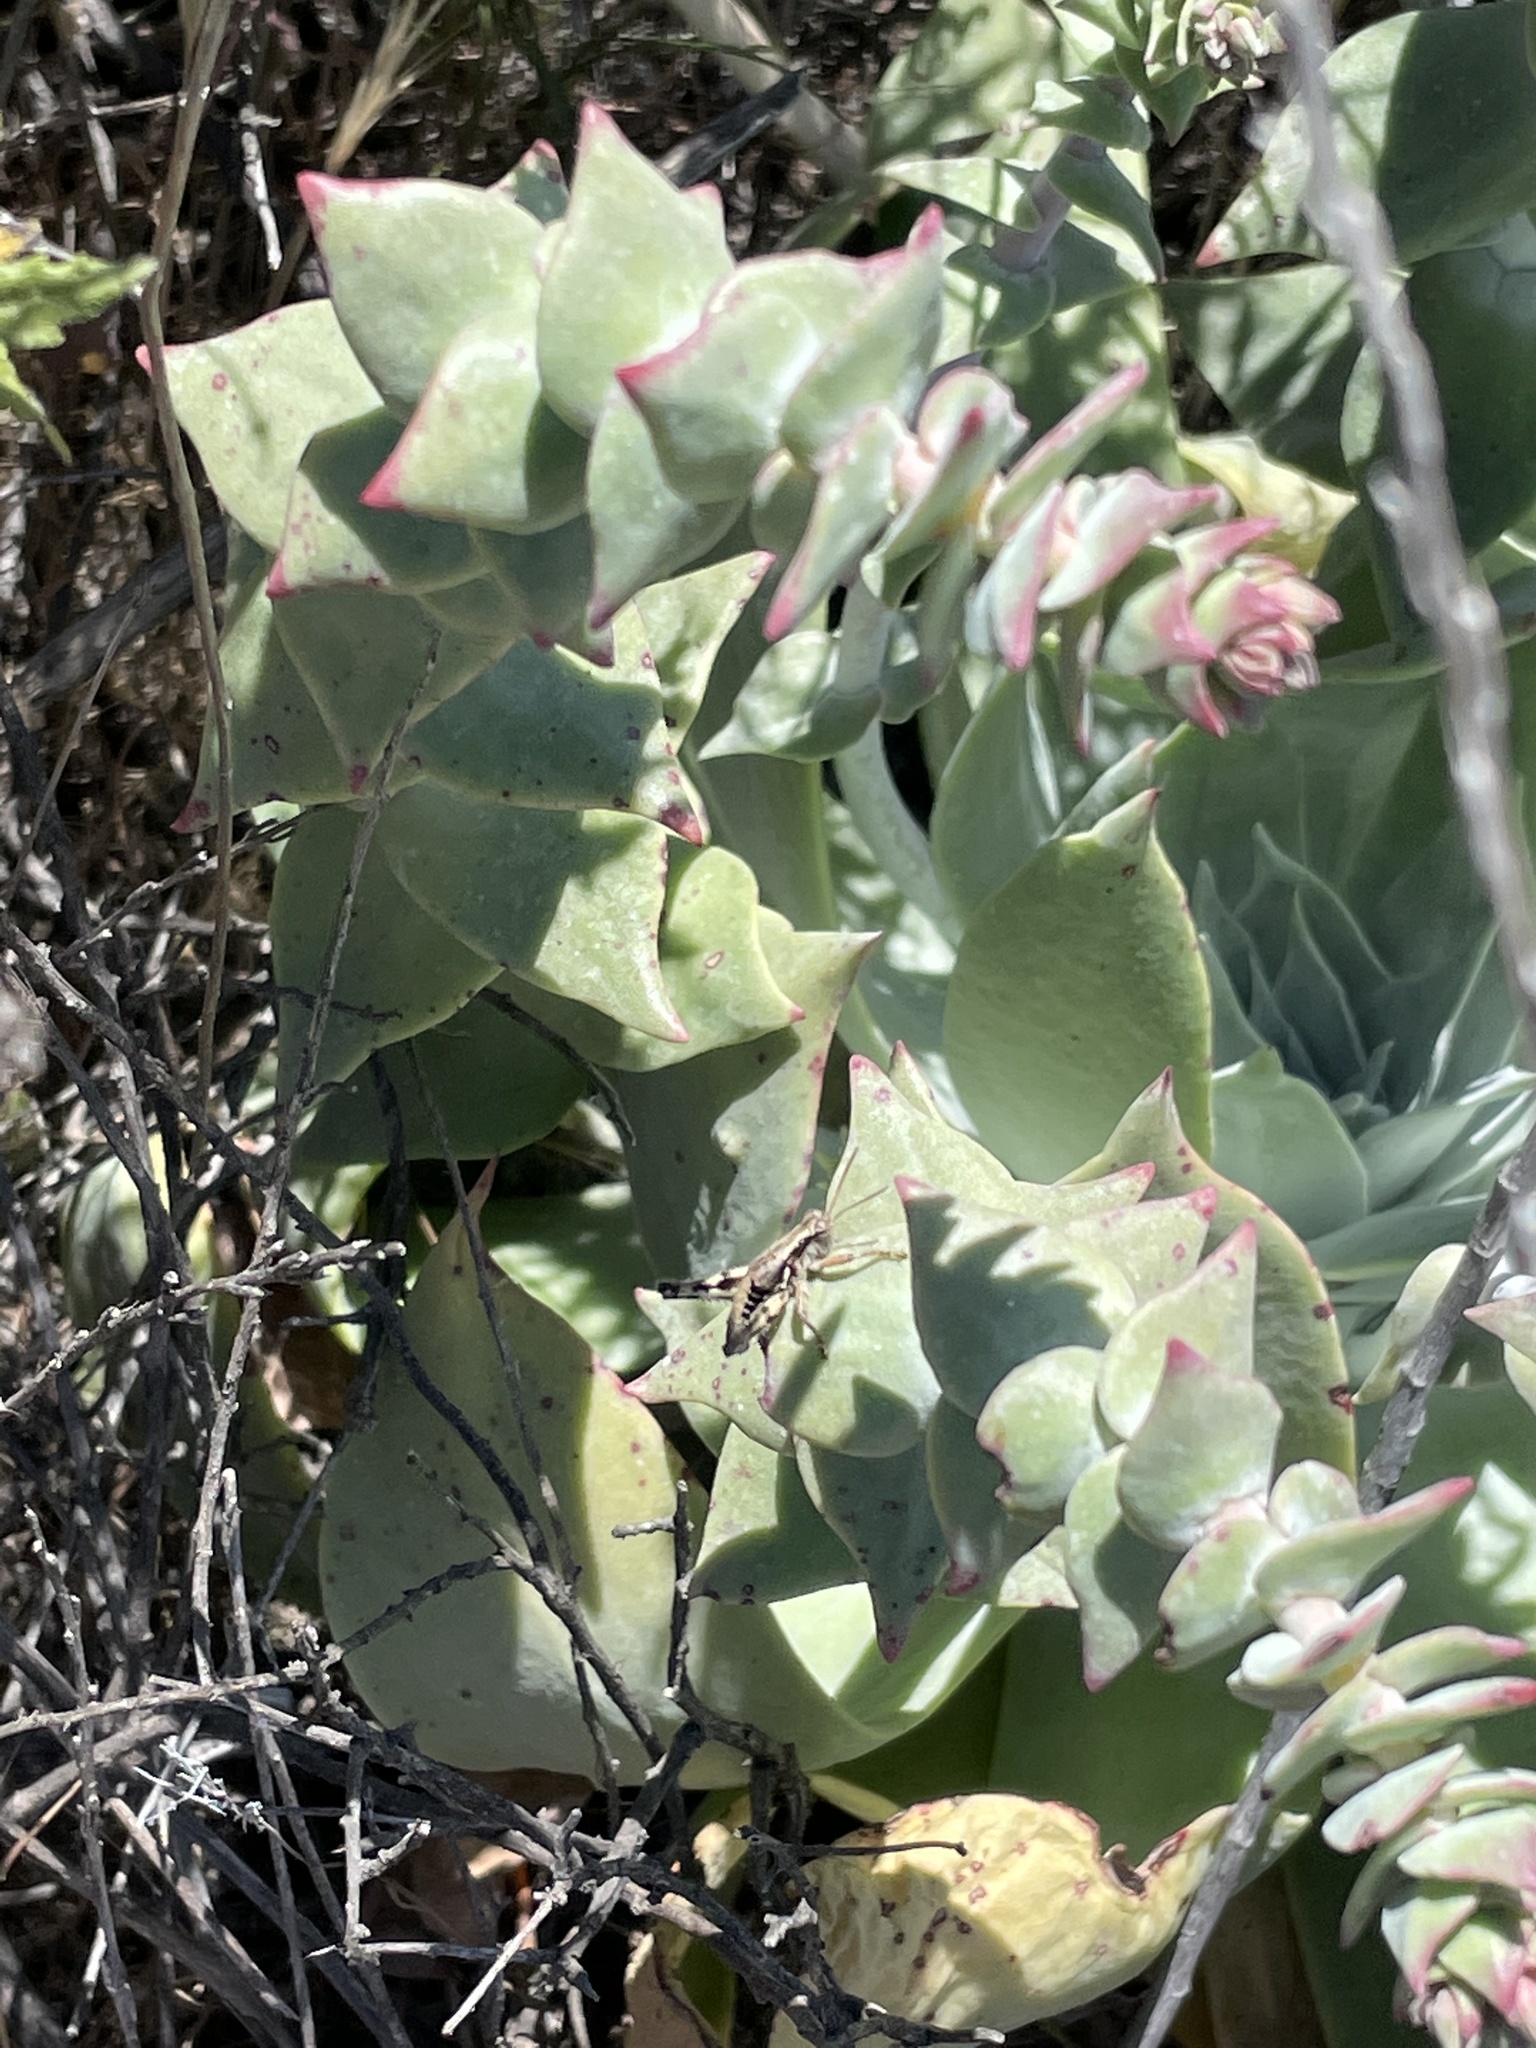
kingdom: Plantae
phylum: Tracheophyta
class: Magnoliopsida
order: Saxifragales
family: Crassulaceae
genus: Dudleya
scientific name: Dudleya pulverulenta
